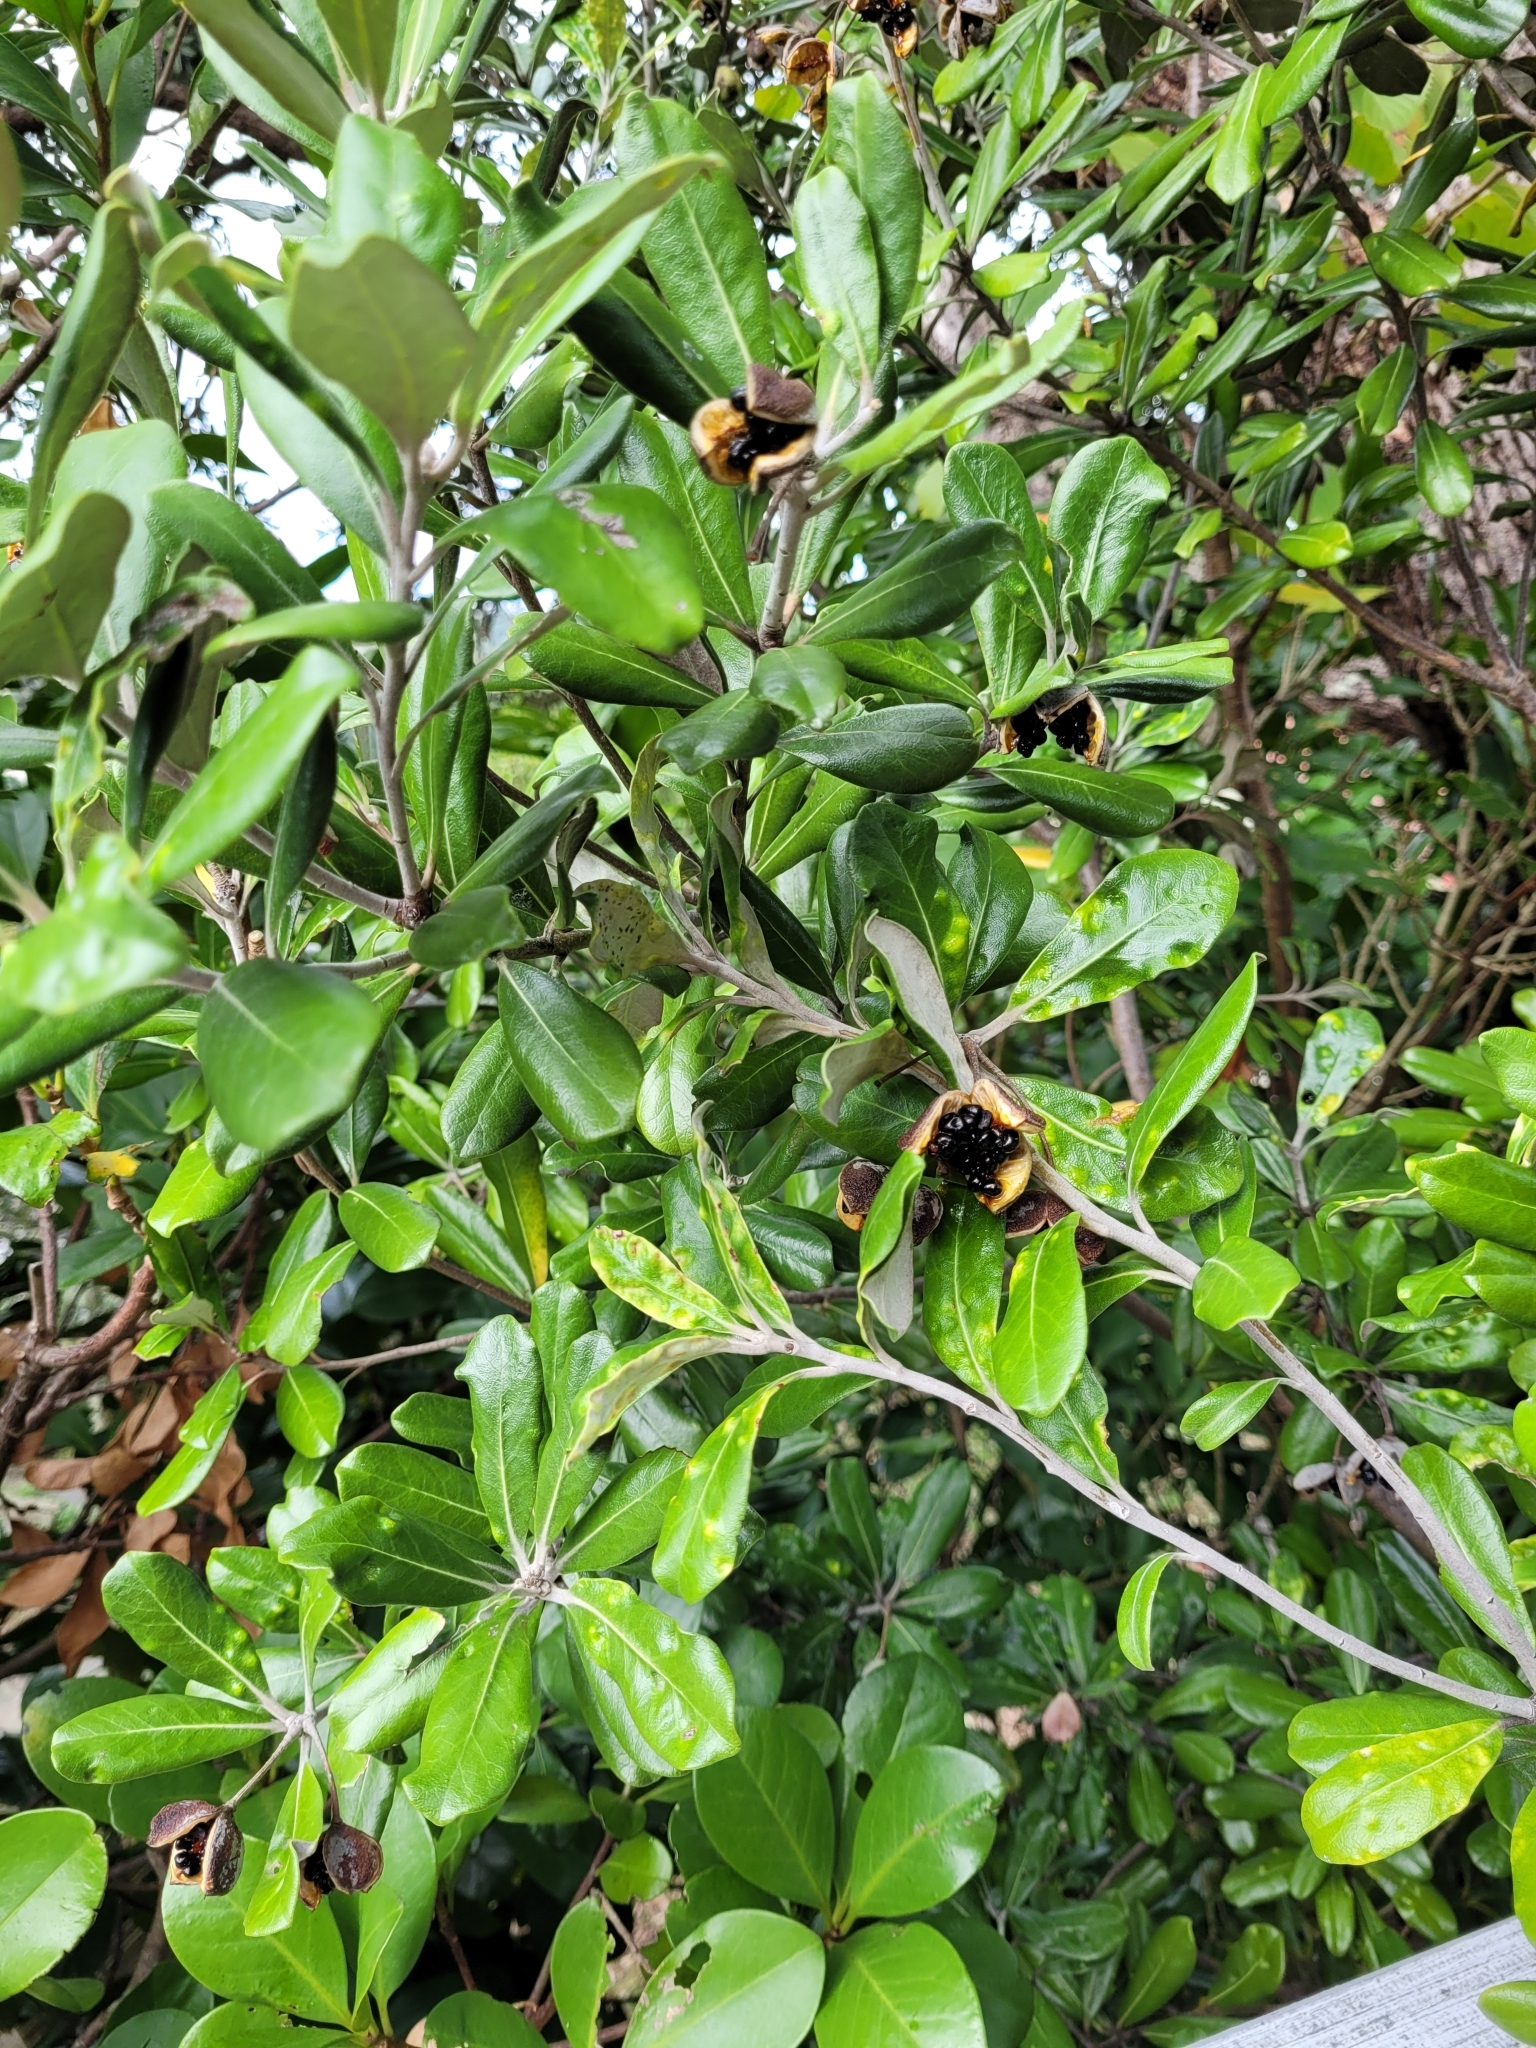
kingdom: Plantae
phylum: Tracheophyta
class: Magnoliopsida
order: Apiales
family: Pittosporaceae
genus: Pittosporum
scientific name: Pittosporum crassifolium
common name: Karo
